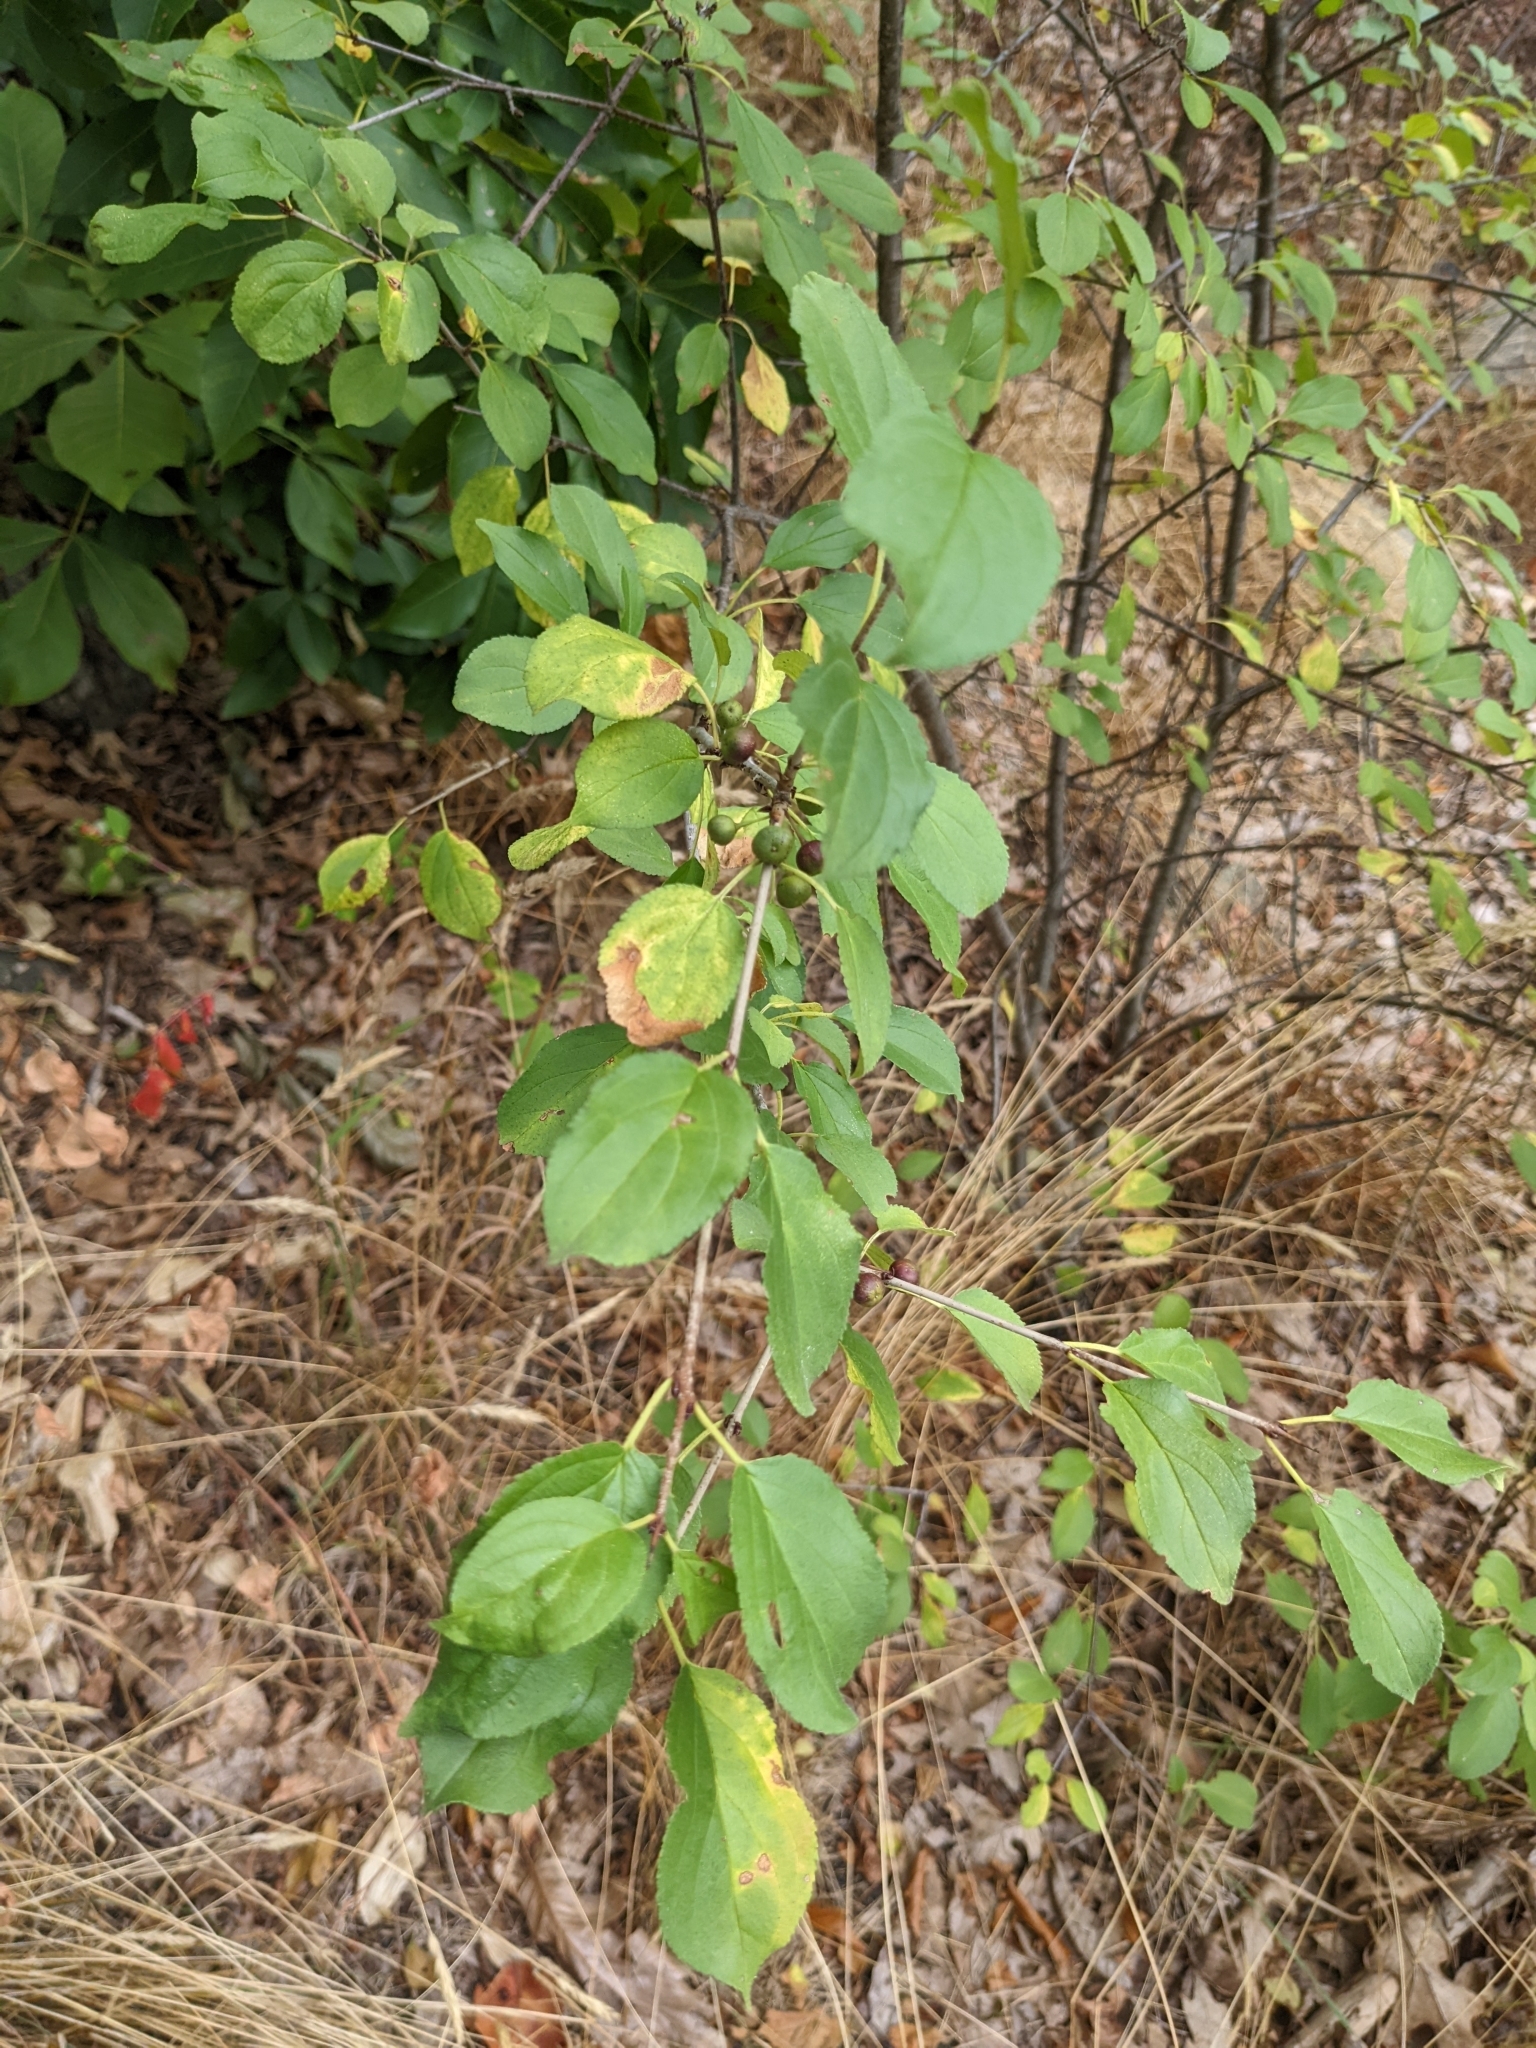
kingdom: Plantae
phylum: Tracheophyta
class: Magnoliopsida
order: Rosales
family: Rhamnaceae
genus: Rhamnus
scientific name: Rhamnus cathartica
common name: Common buckthorn
